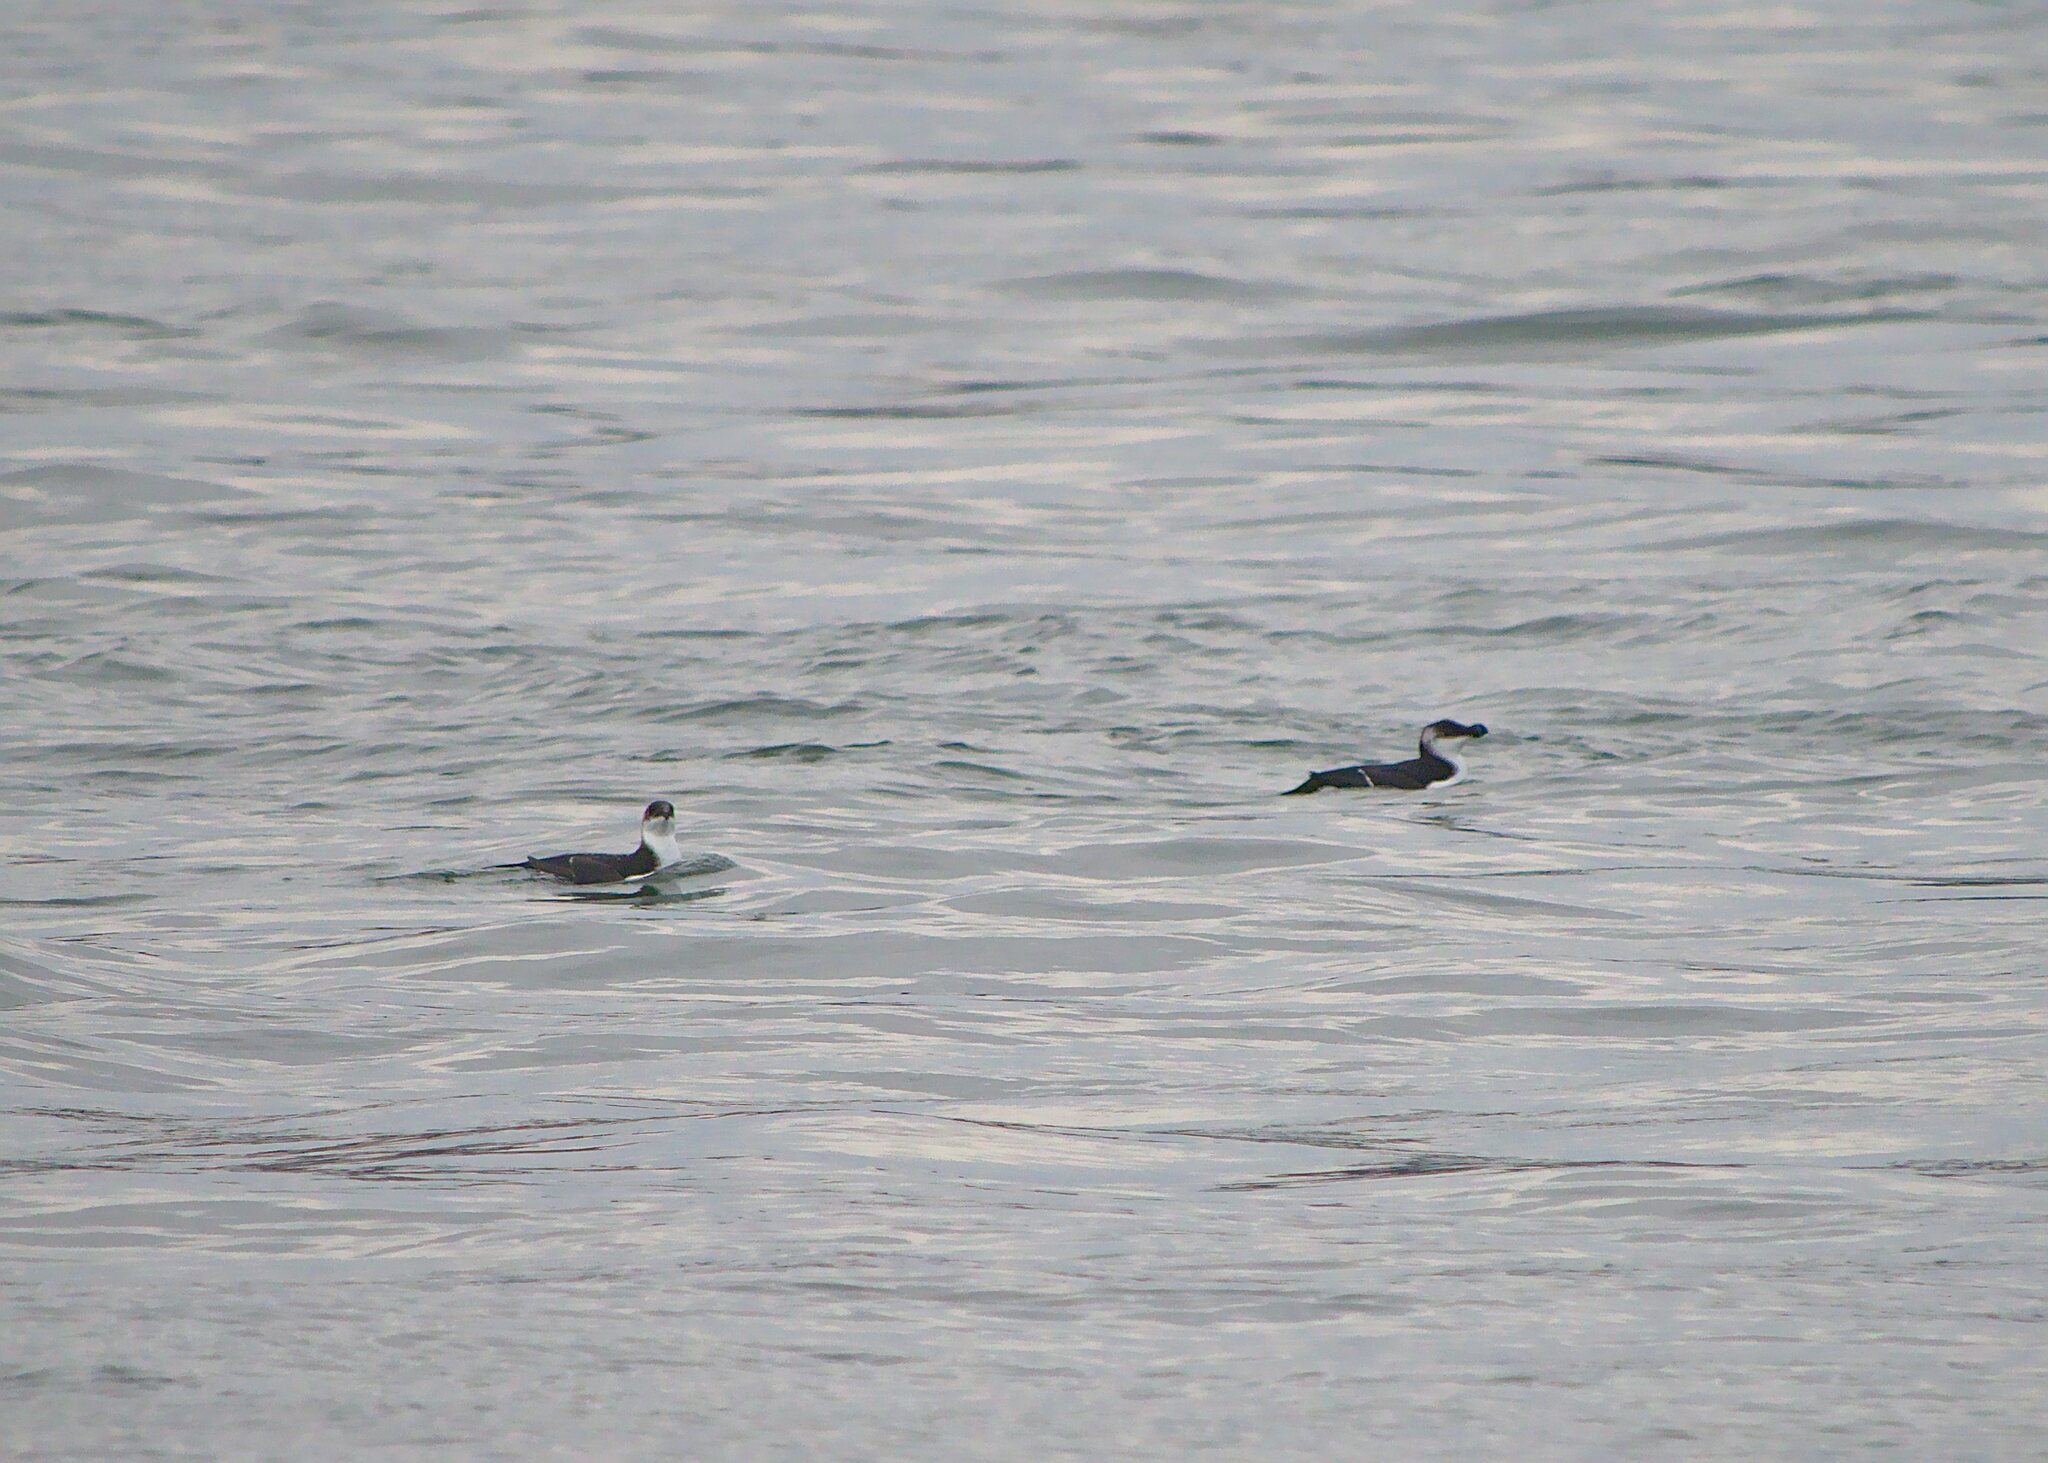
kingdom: Animalia
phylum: Chordata
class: Aves
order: Charadriiformes
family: Alcidae
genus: Alca
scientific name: Alca torda
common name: Razorbill
